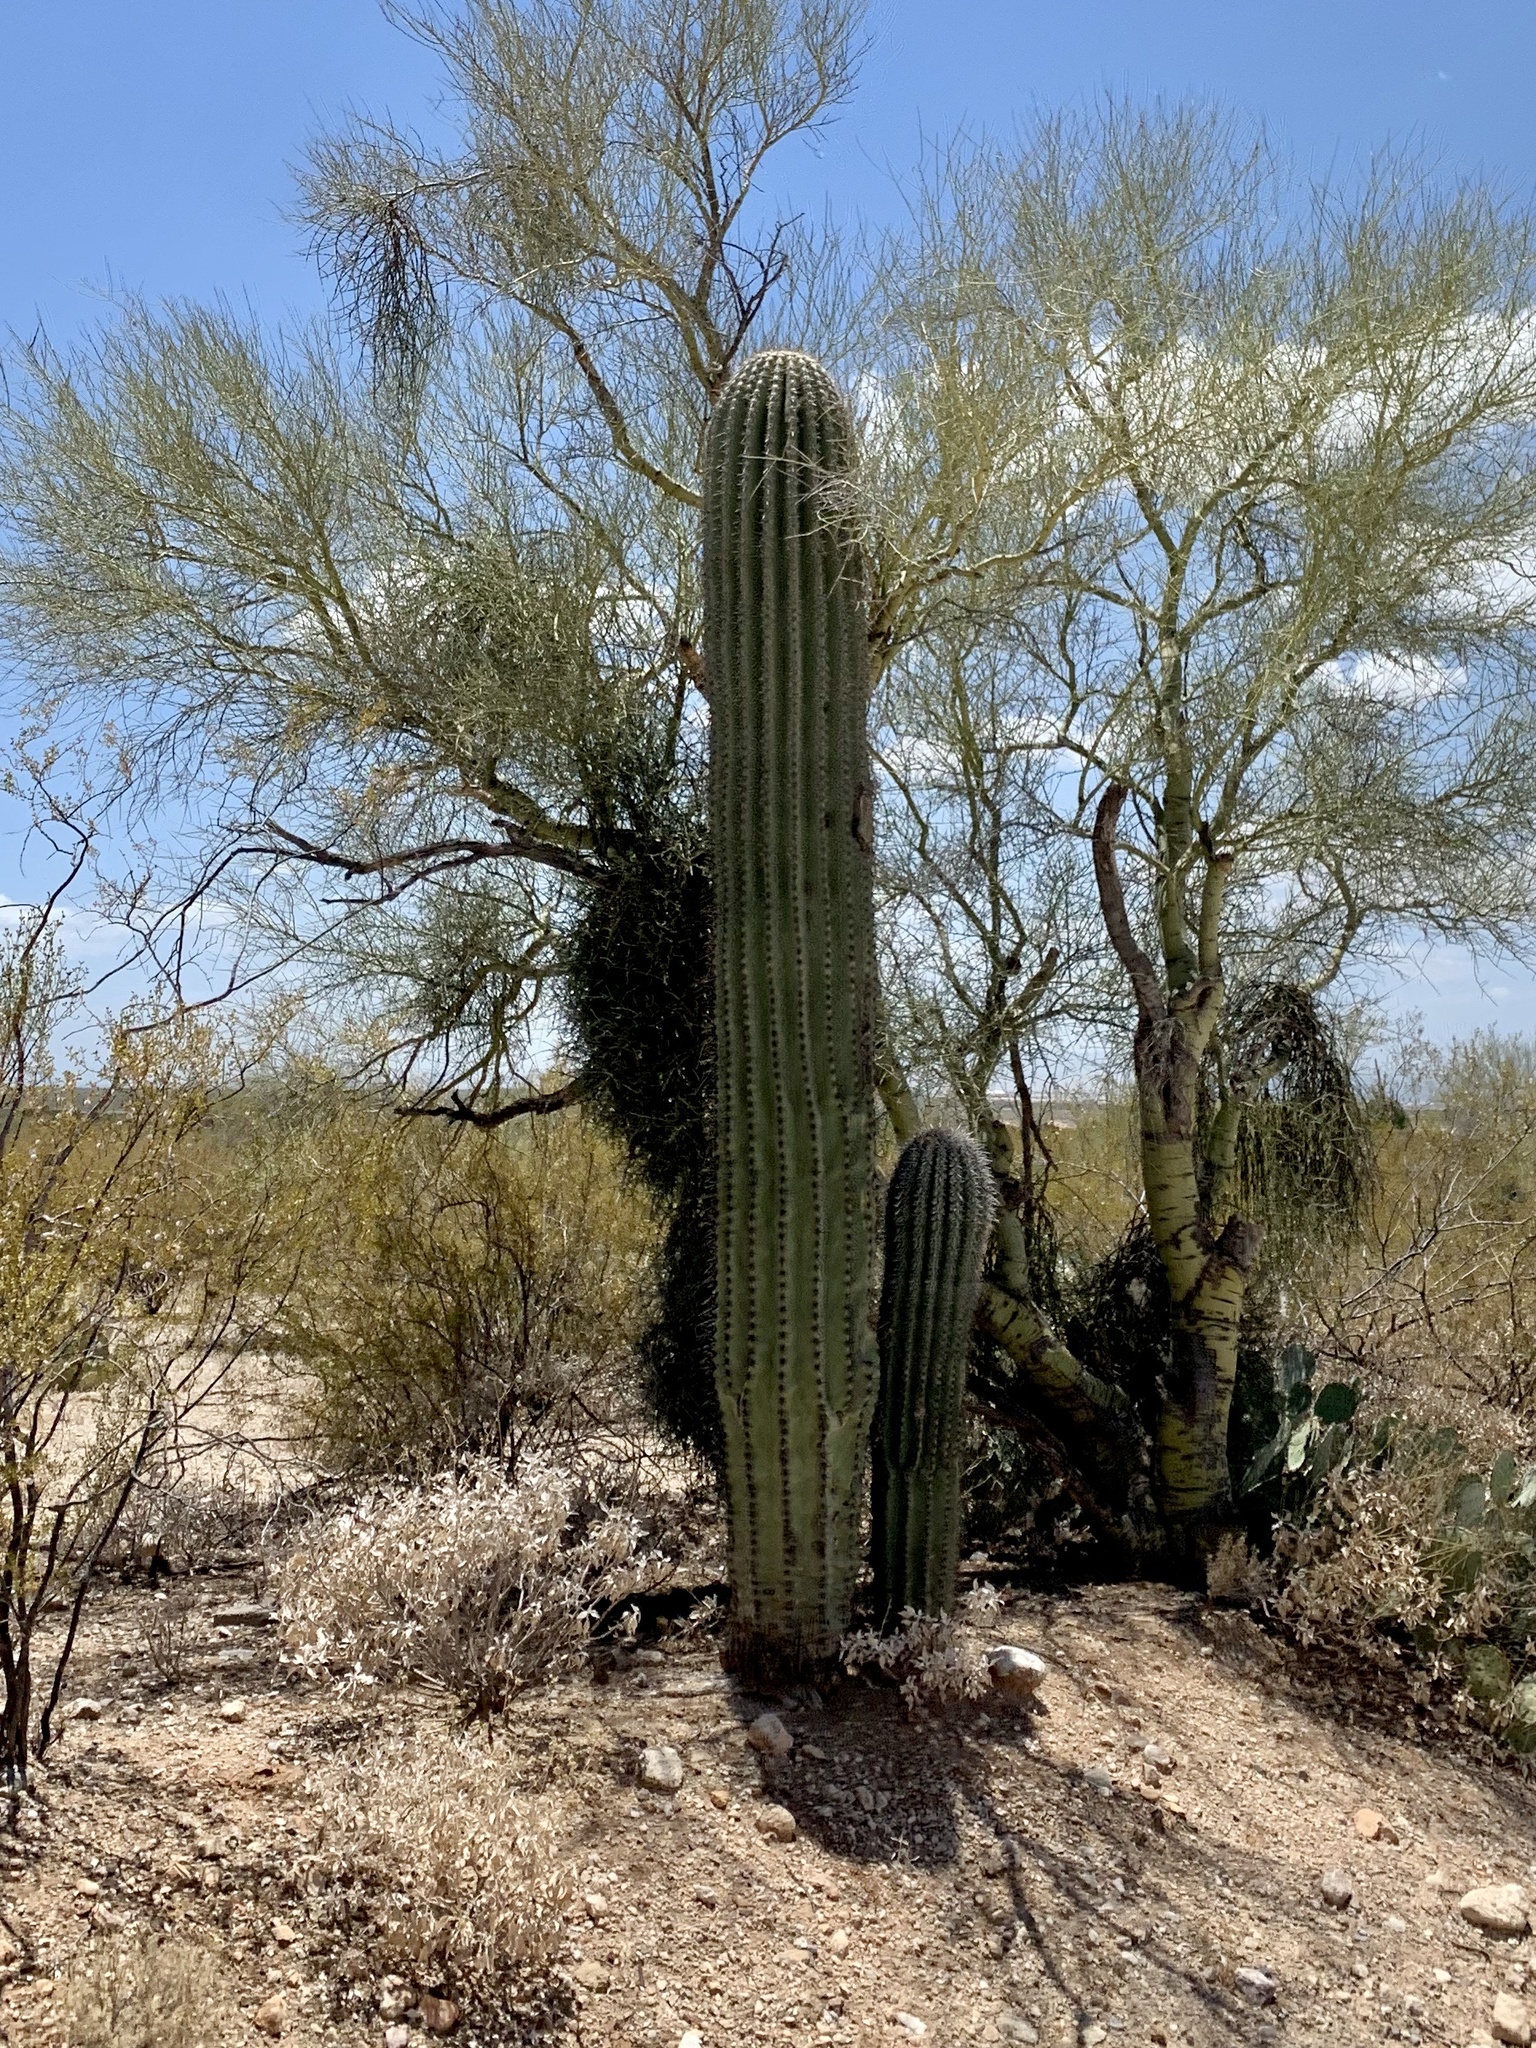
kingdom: Plantae
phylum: Tracheophyta
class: Magnoliopsida
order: Caryophyllales
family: Cactaceae
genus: Carnegiea
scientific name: Carnegiea gigantea
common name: Saguaro
